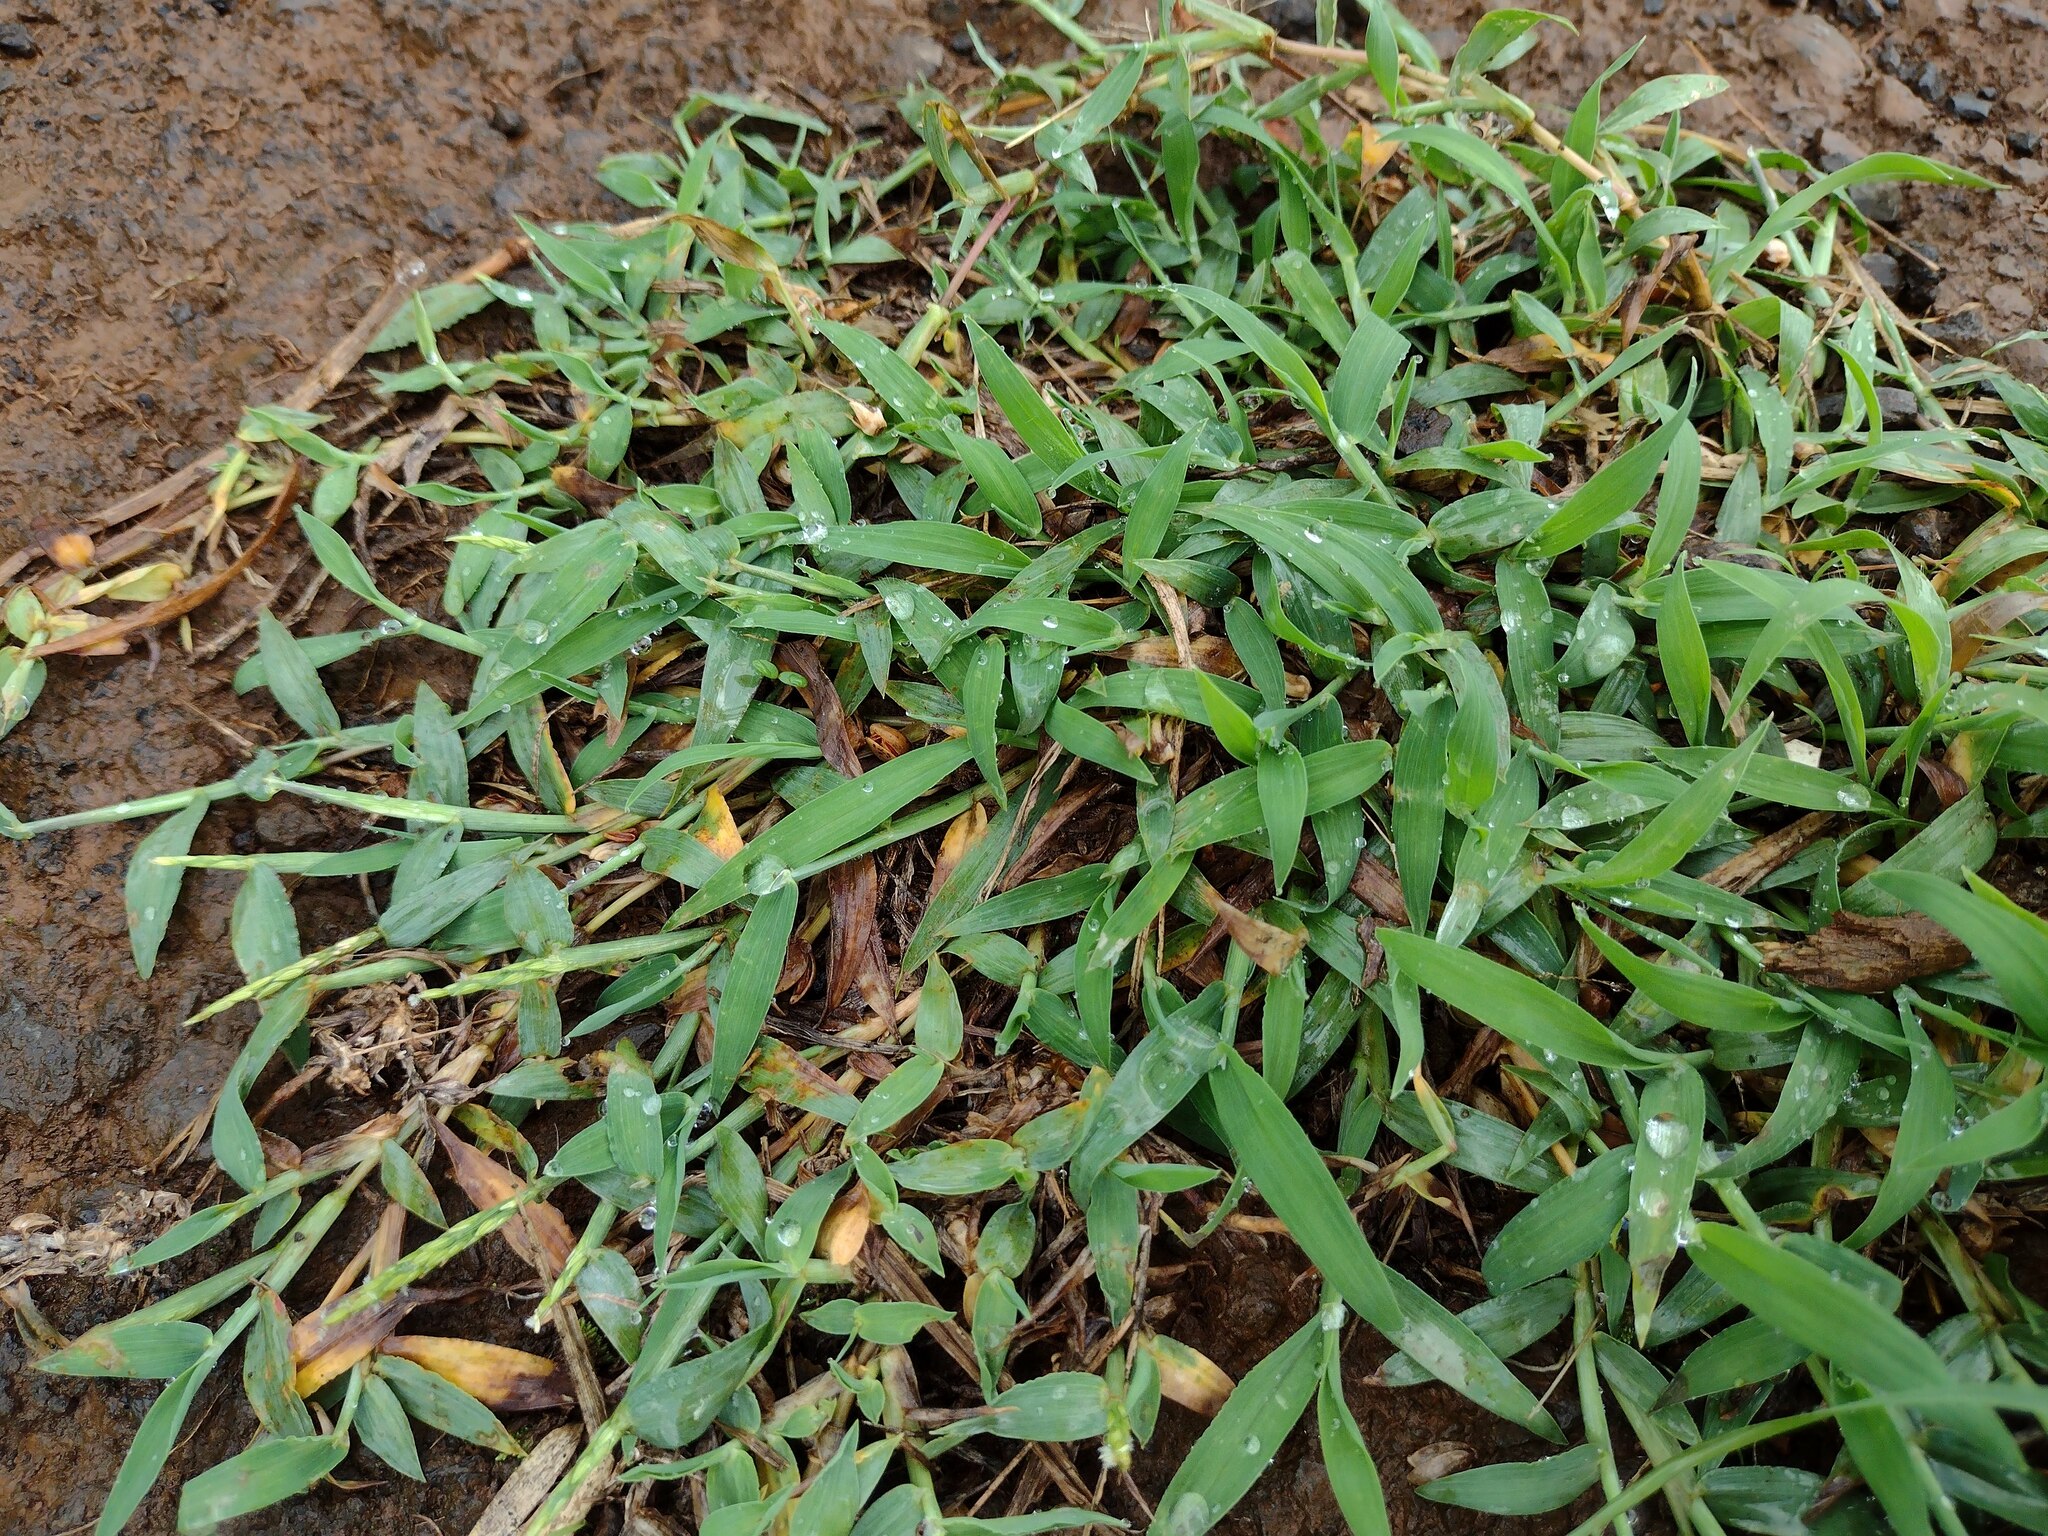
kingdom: Plantae
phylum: Tracheophyta
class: Liliopsida
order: Poales
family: Poaceae
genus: Digitaria
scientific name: Digitaria ciliaris
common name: Tropical finger-grass
